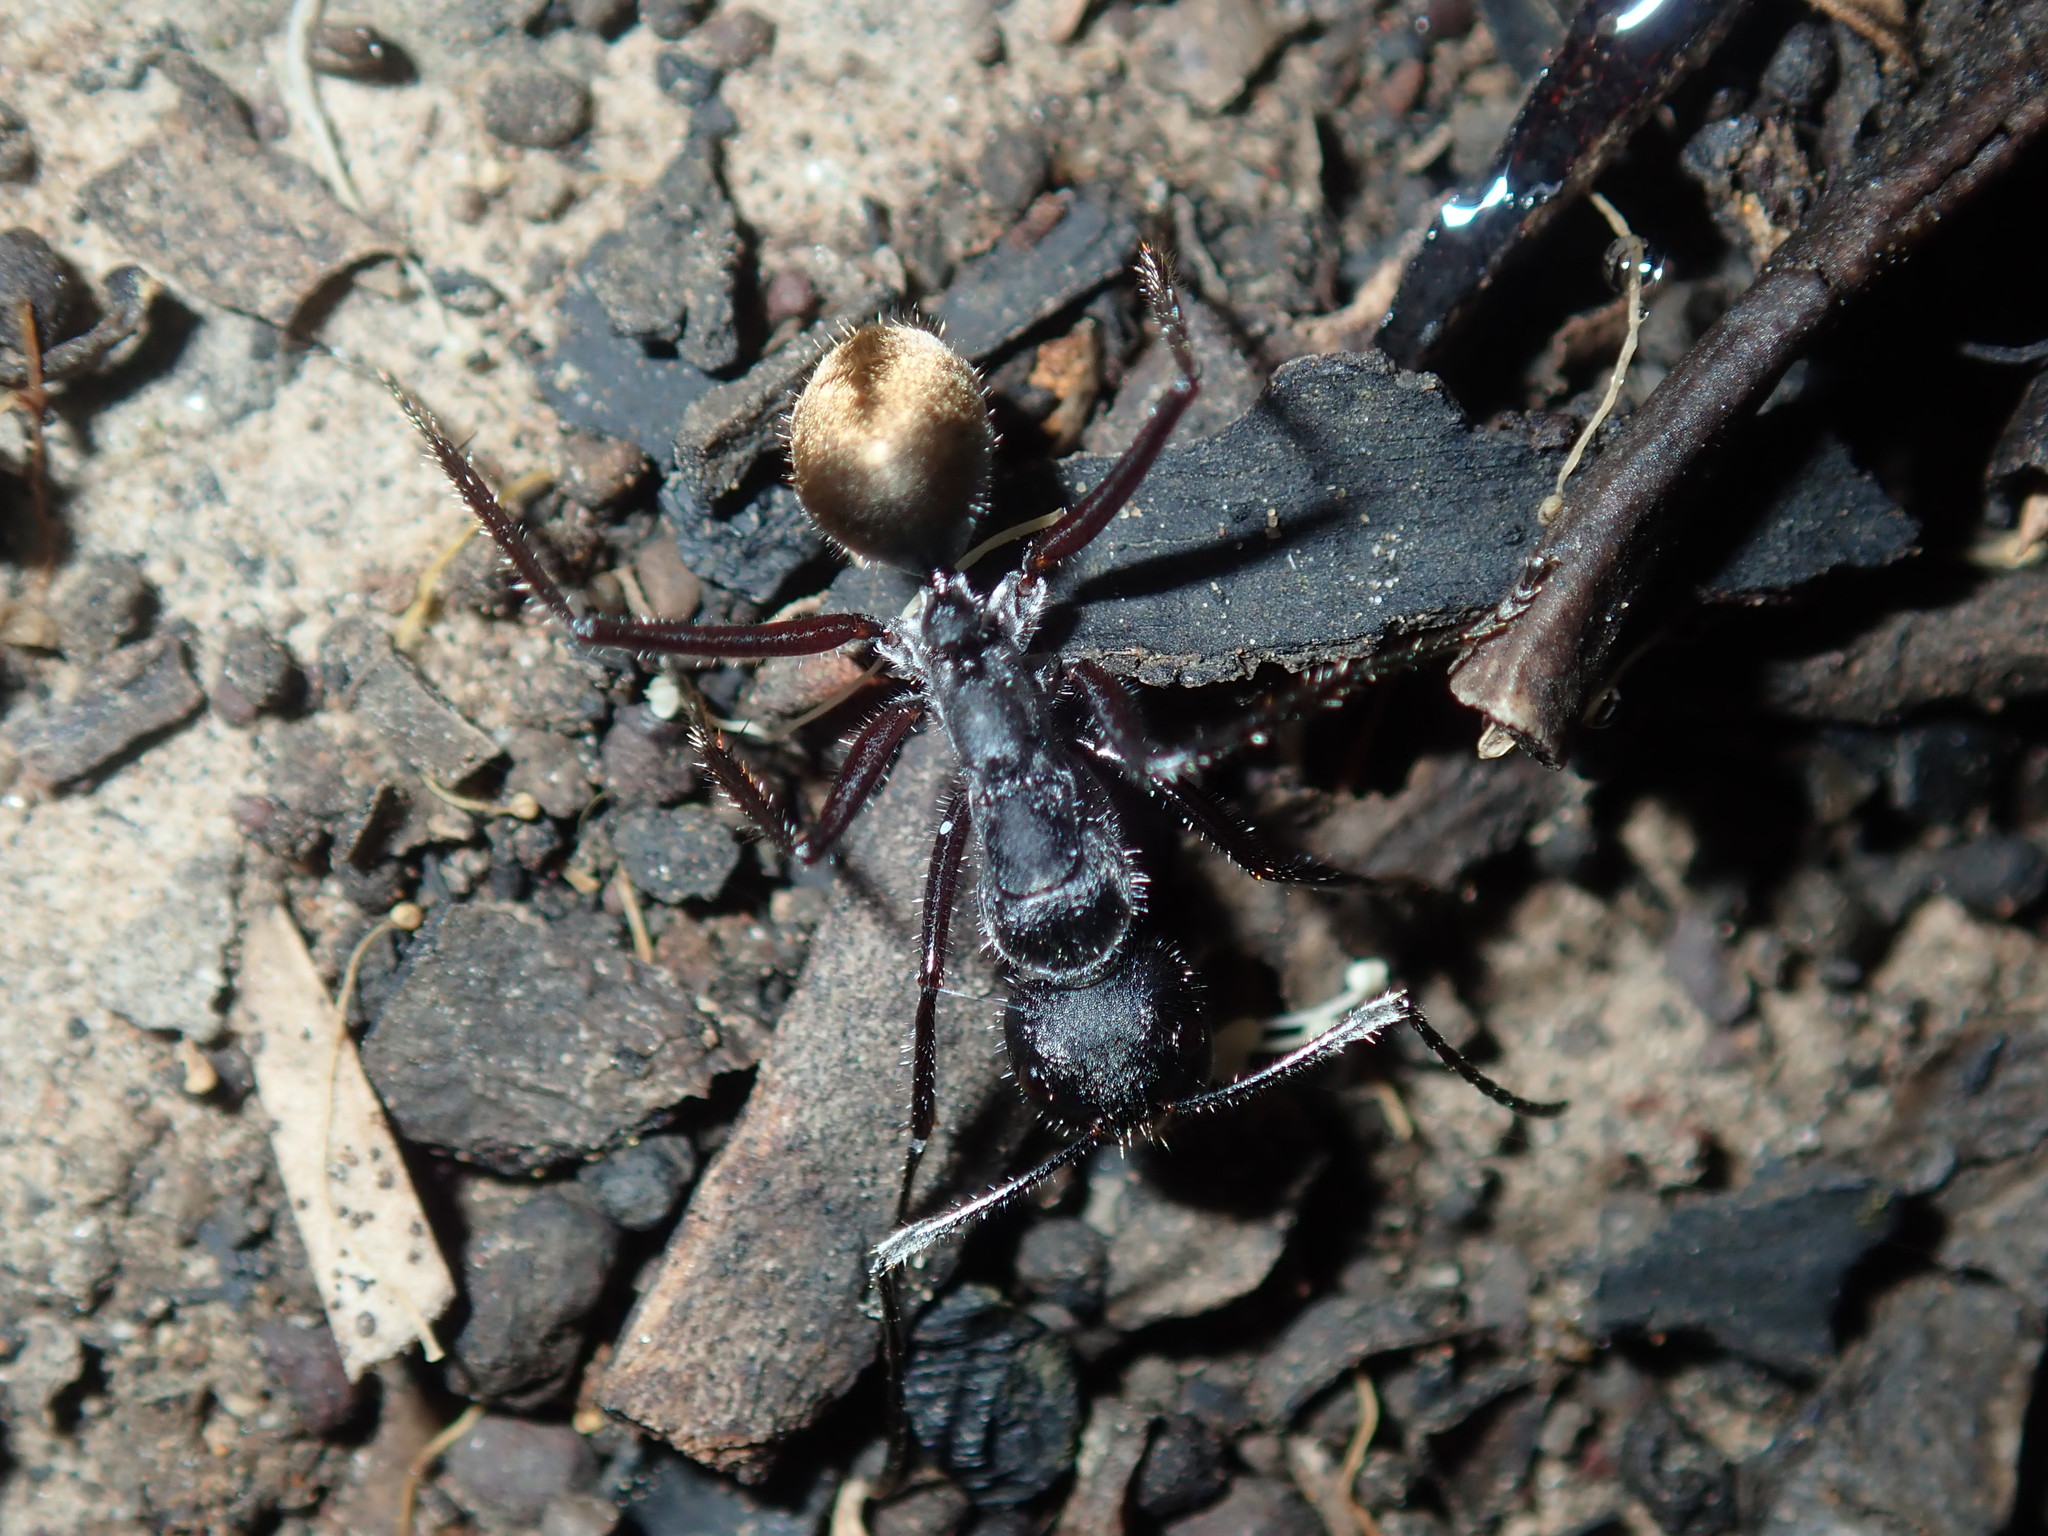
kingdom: Animalia
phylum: Arthropoda
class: Insecta
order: Hymenoptera
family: Formicidae
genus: Camponotus
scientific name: Camponotus suffusus
